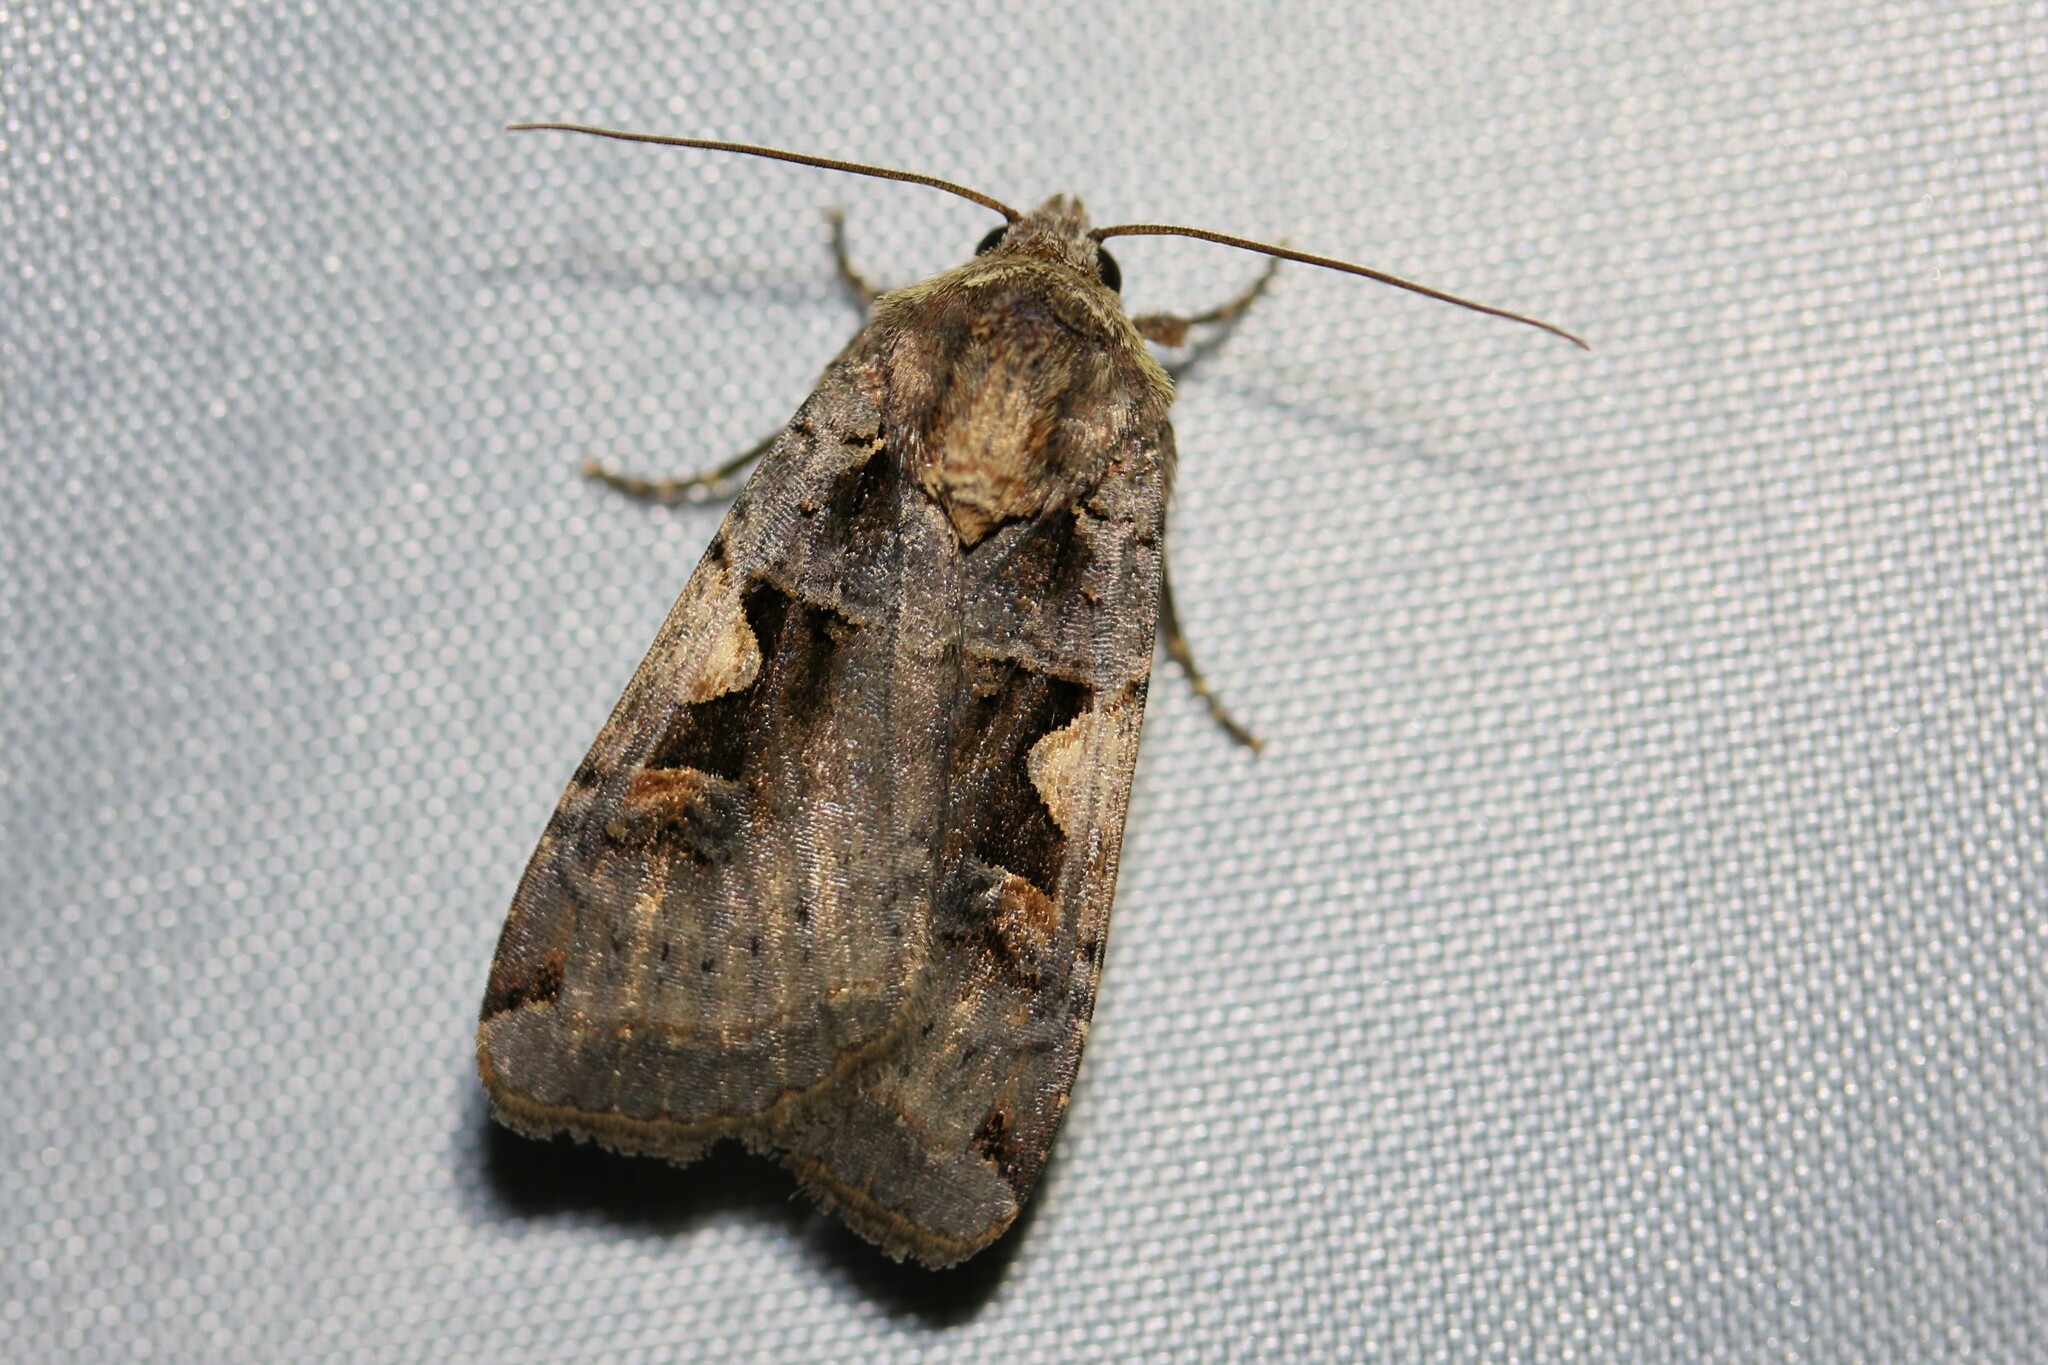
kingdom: Animalia
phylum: Arthropoda
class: Insecta
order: Lepidoptera
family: Noctuidae
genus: Xestia
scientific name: Xestia c-nigrum
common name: Setaceous hebrew character
